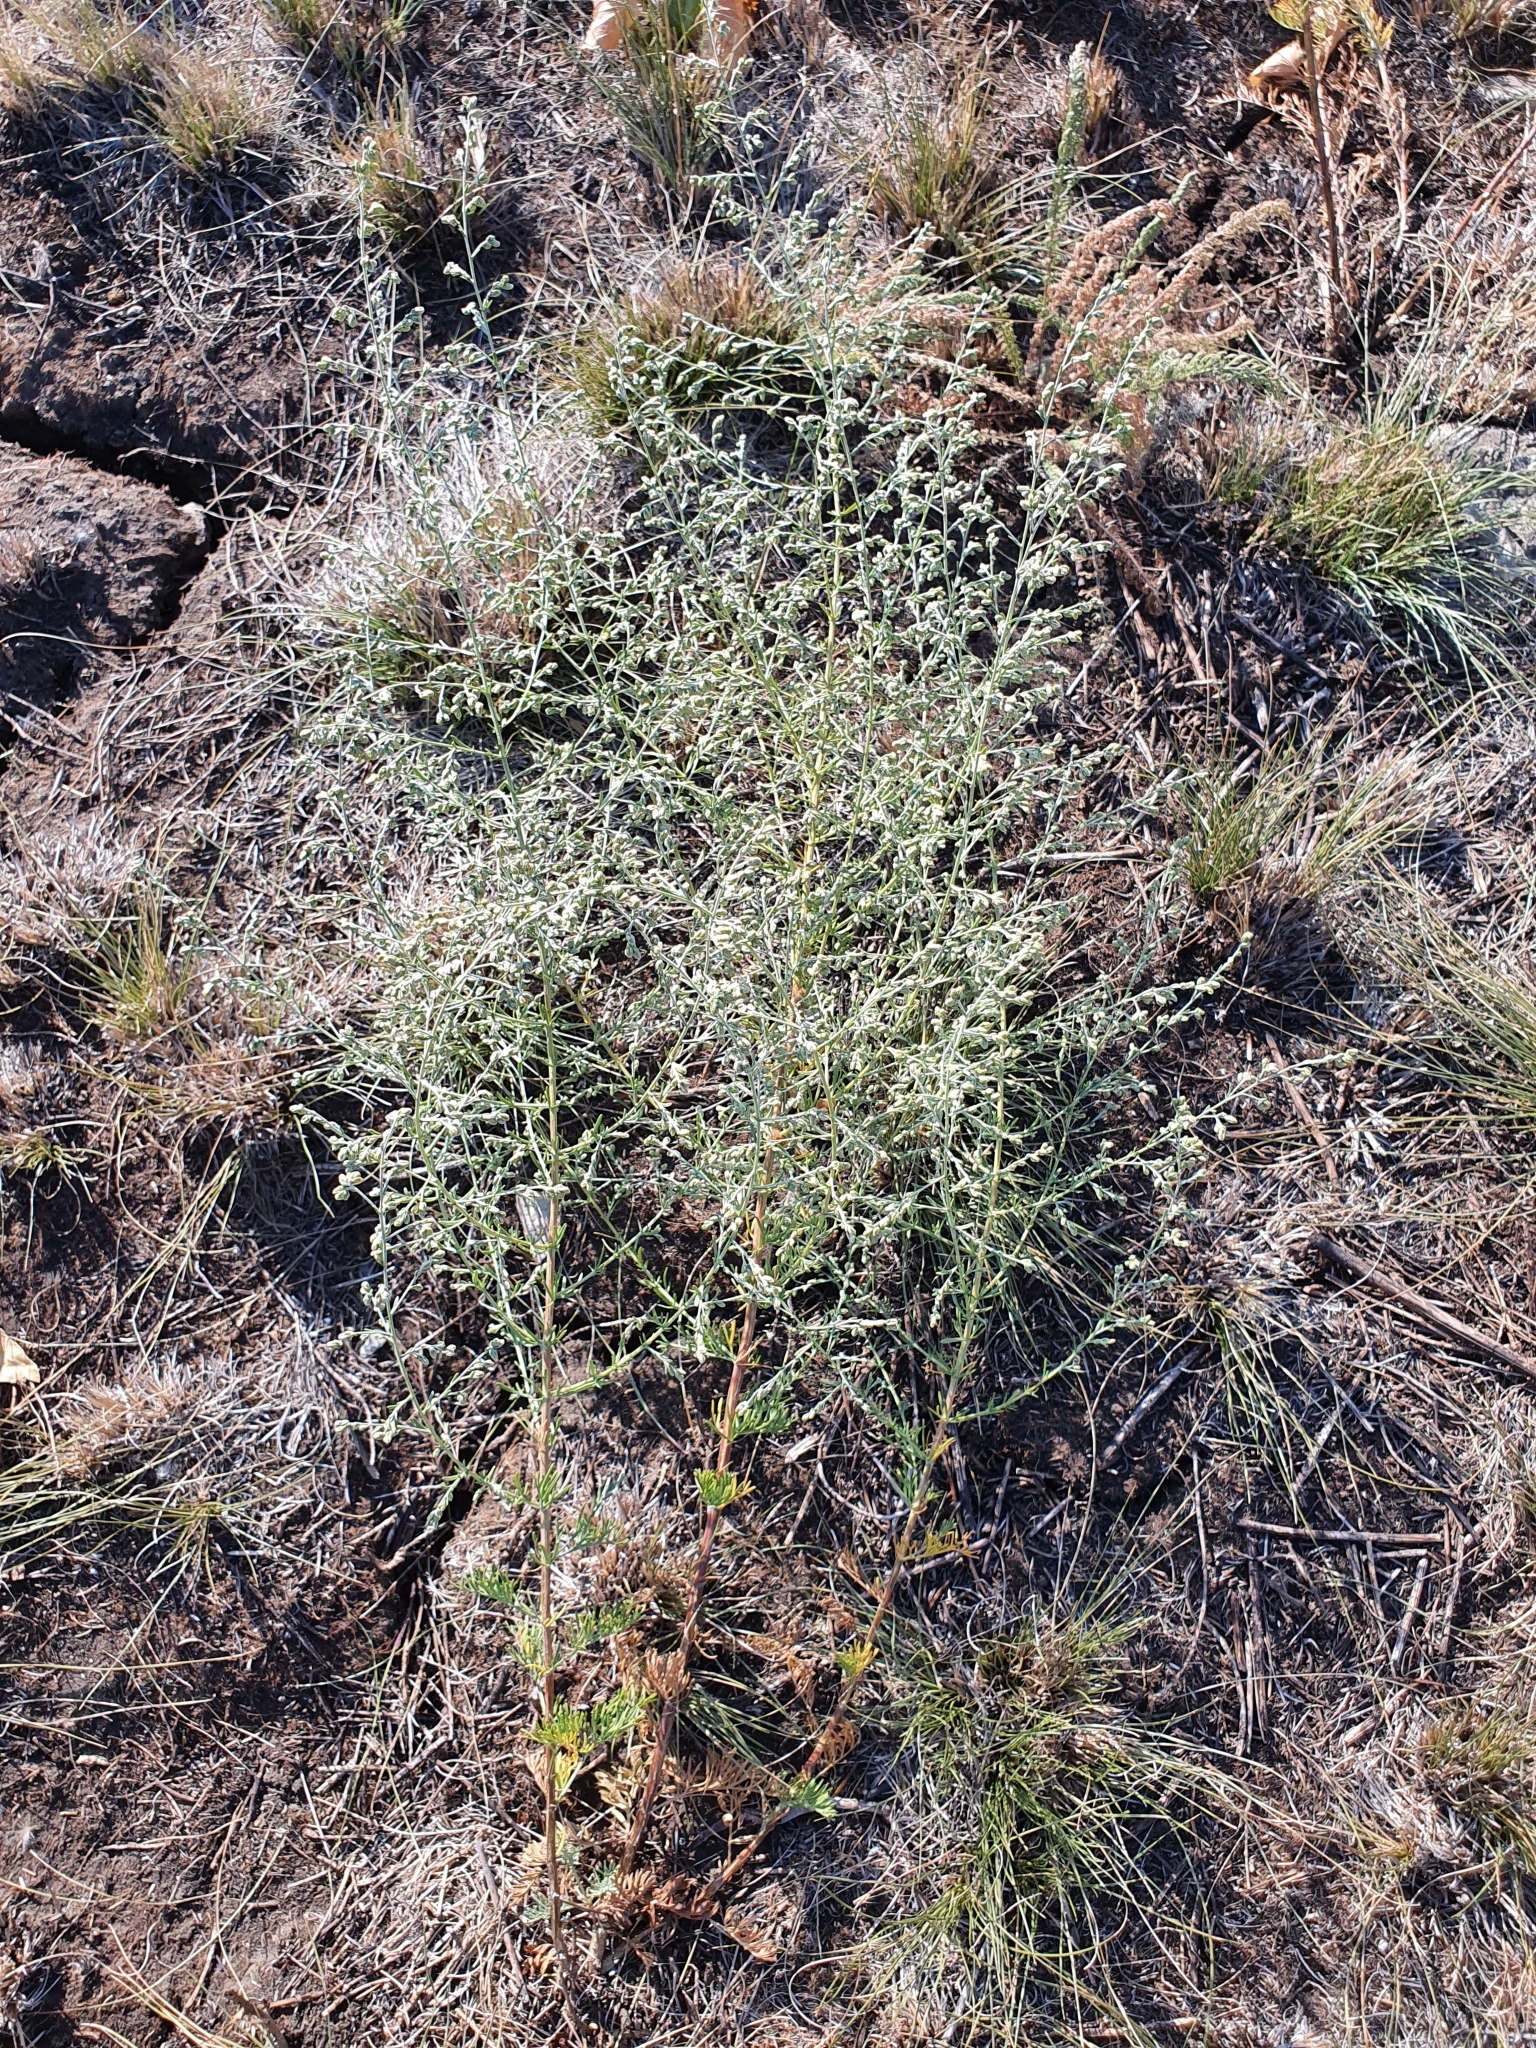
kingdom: Plantae
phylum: Tracheophyta
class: Magnoliopsida
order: Asterales
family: Asteraceae
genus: Artemisia
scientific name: Artemisia nitrosa
